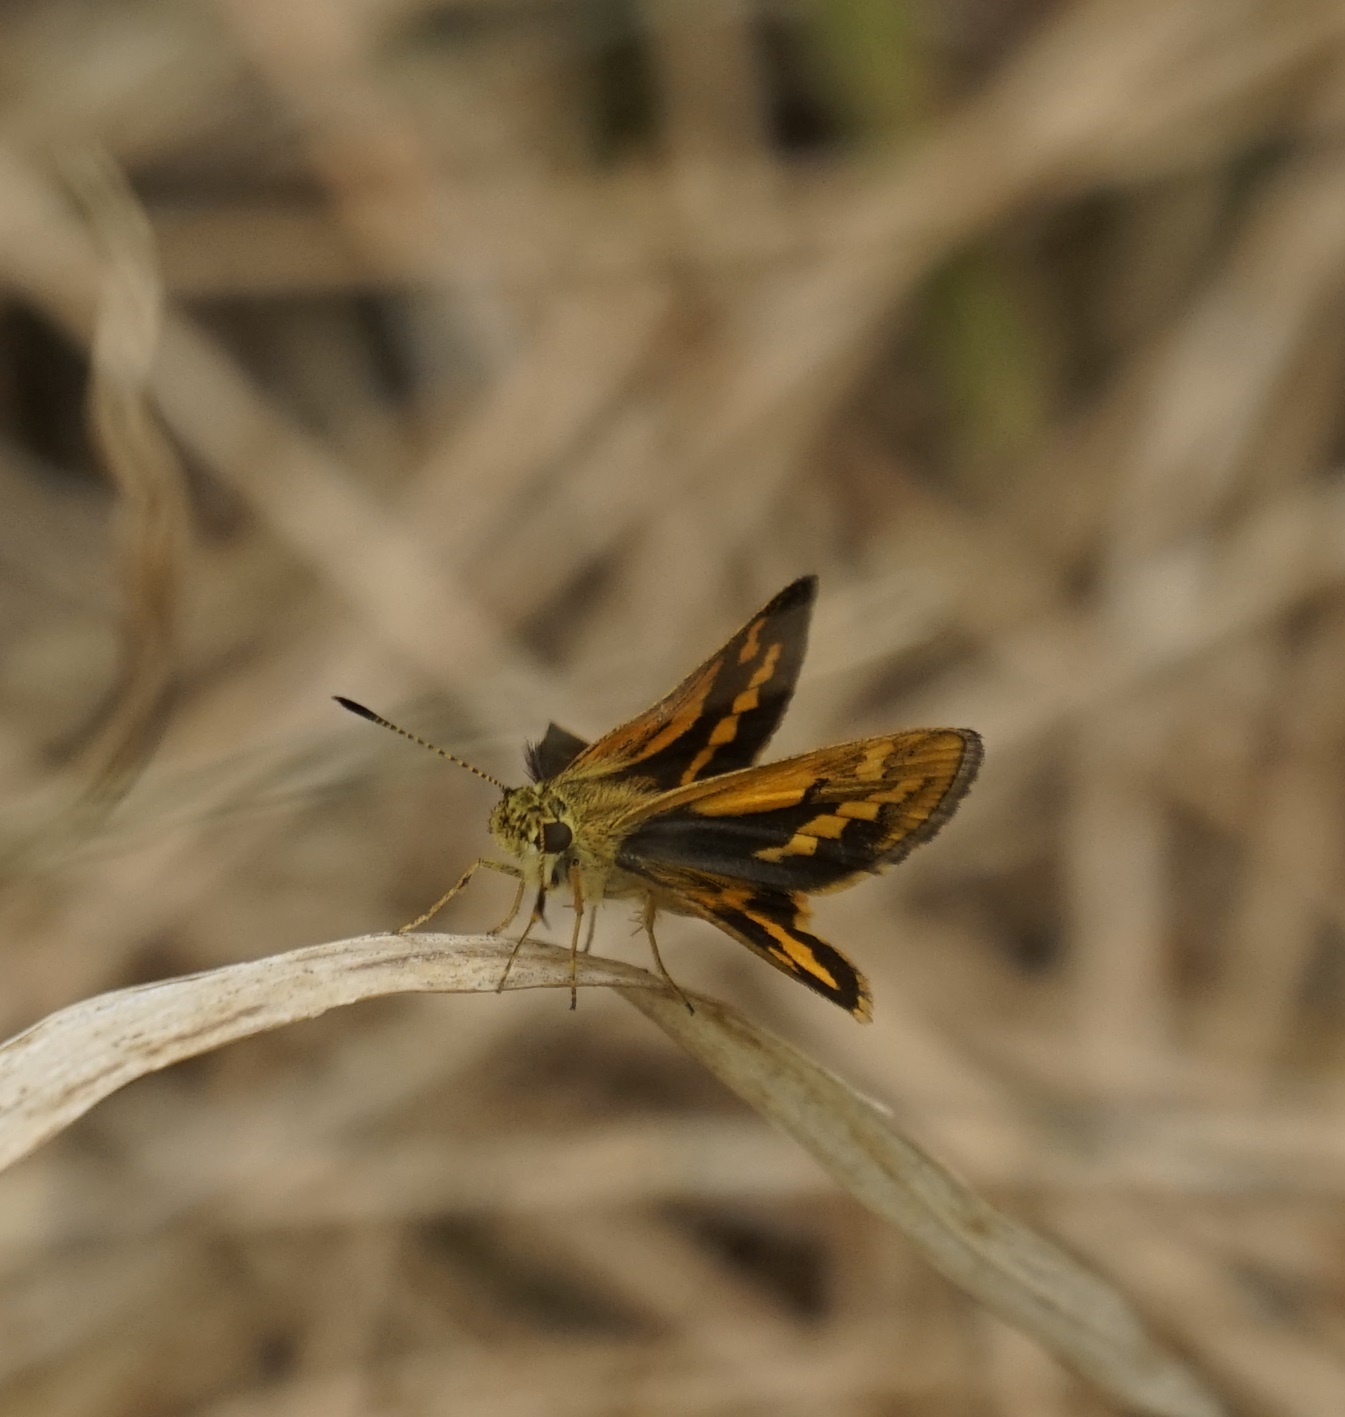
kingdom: Animalia
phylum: Arthropoda
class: Insecta
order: Lepidoptera
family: Hesperiidae
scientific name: Hesperiidae
